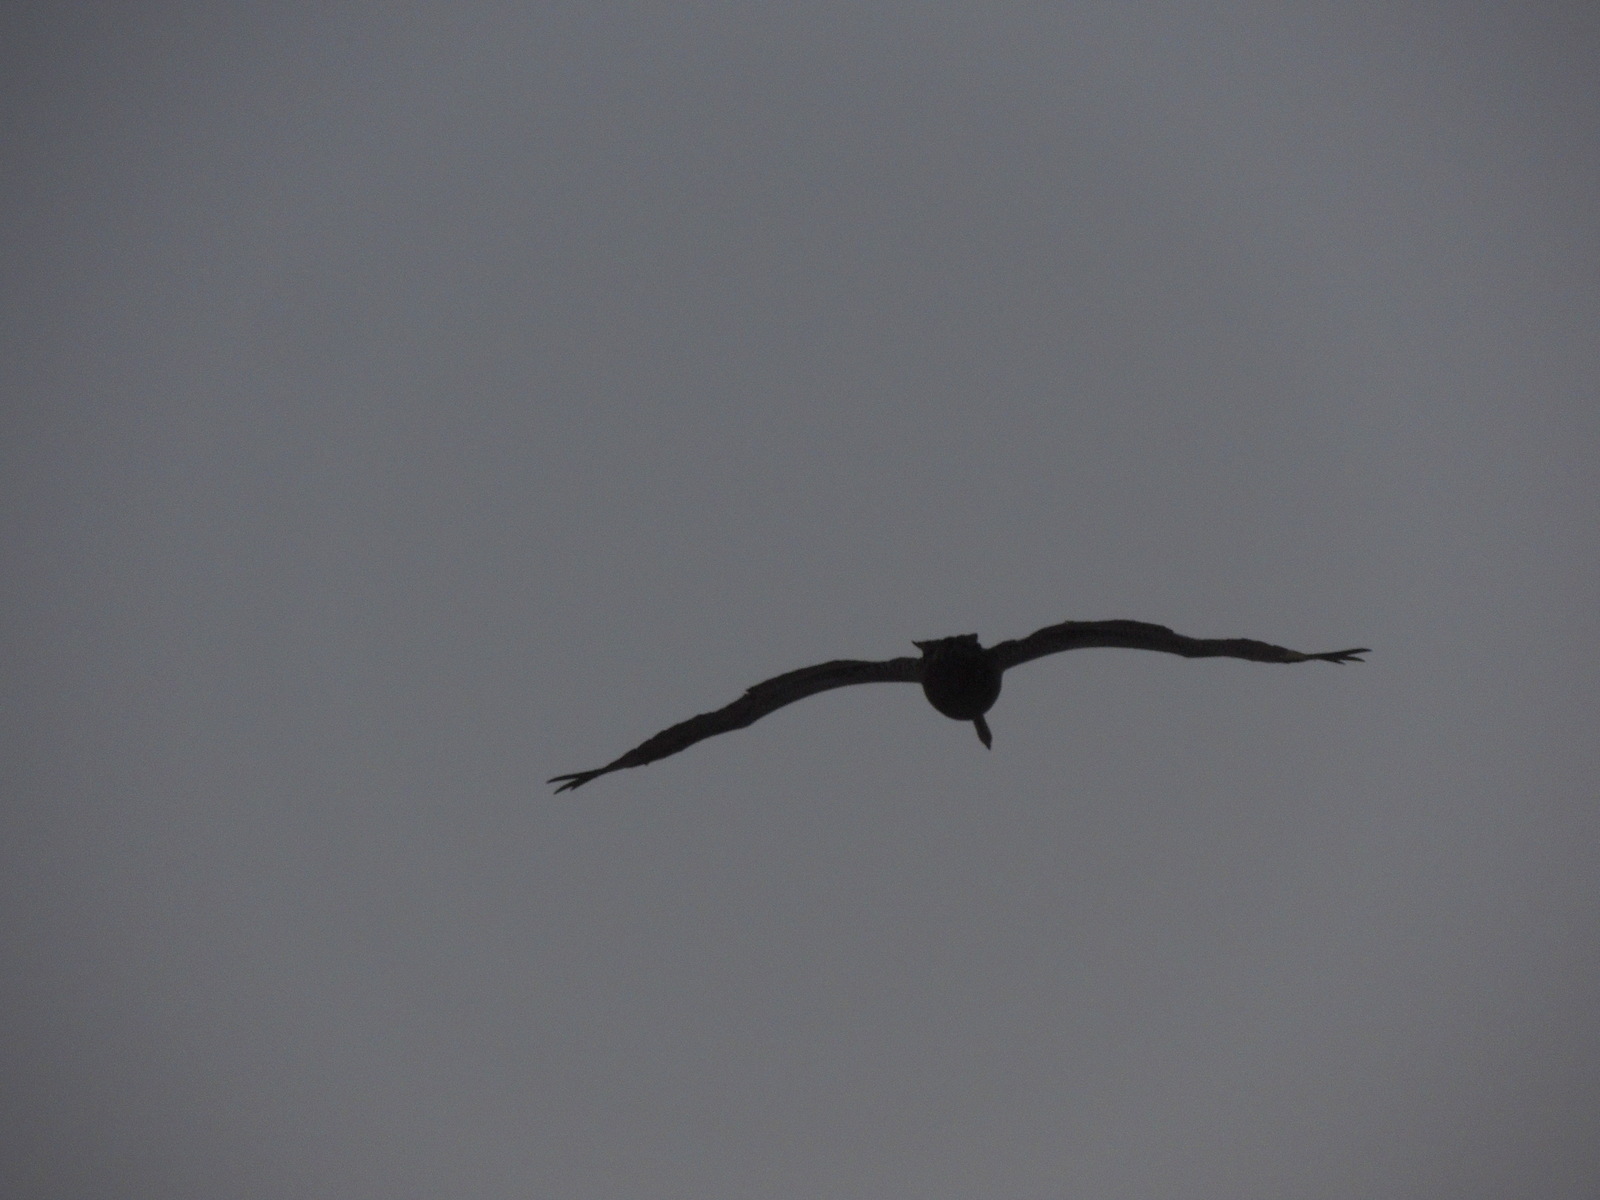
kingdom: Animalia
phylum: Chordata
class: Aves
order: Pelecaniformes
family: Pelecanidae
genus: Pelecanus
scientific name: Pelecanus occidentalis
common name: Brown pelican
